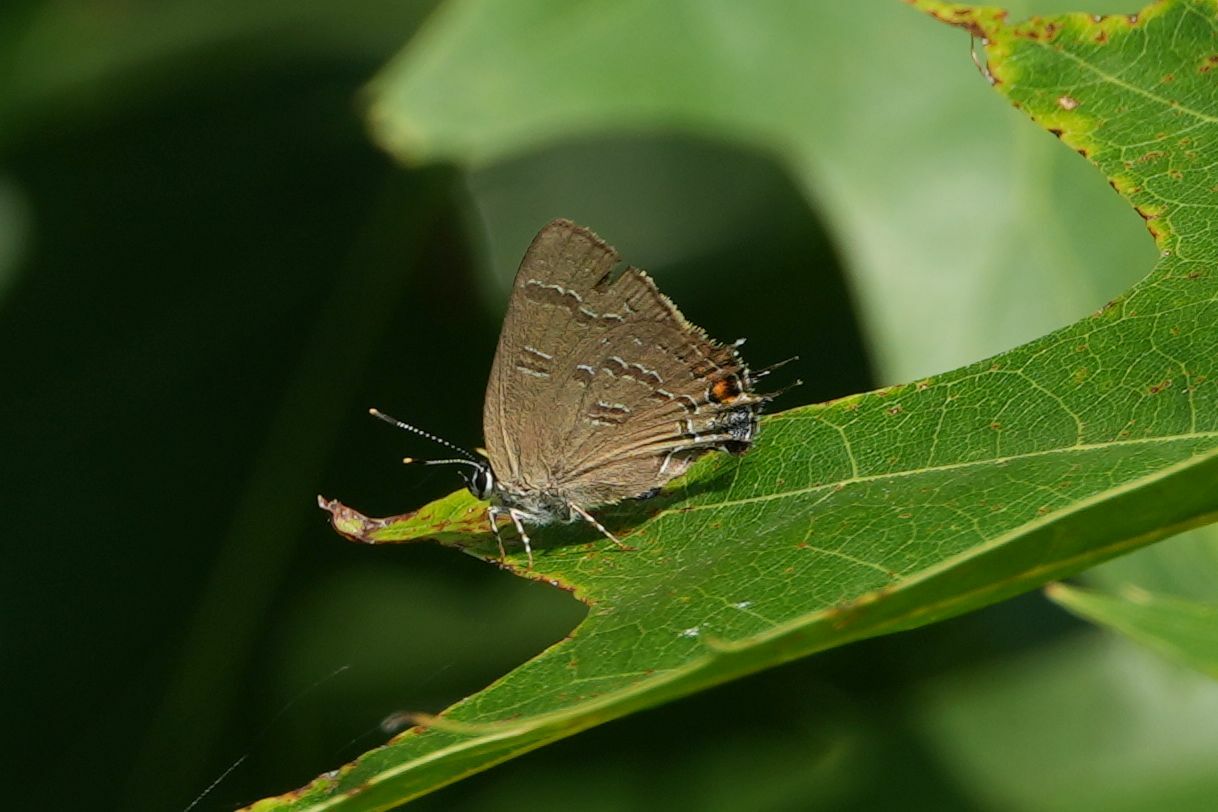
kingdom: Animalia
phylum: Arthropoda
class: Insecta
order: Lepidoptera
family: Lycaenidae
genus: Satyrium
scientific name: Satyrium calanus
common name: Banded hairstreak
